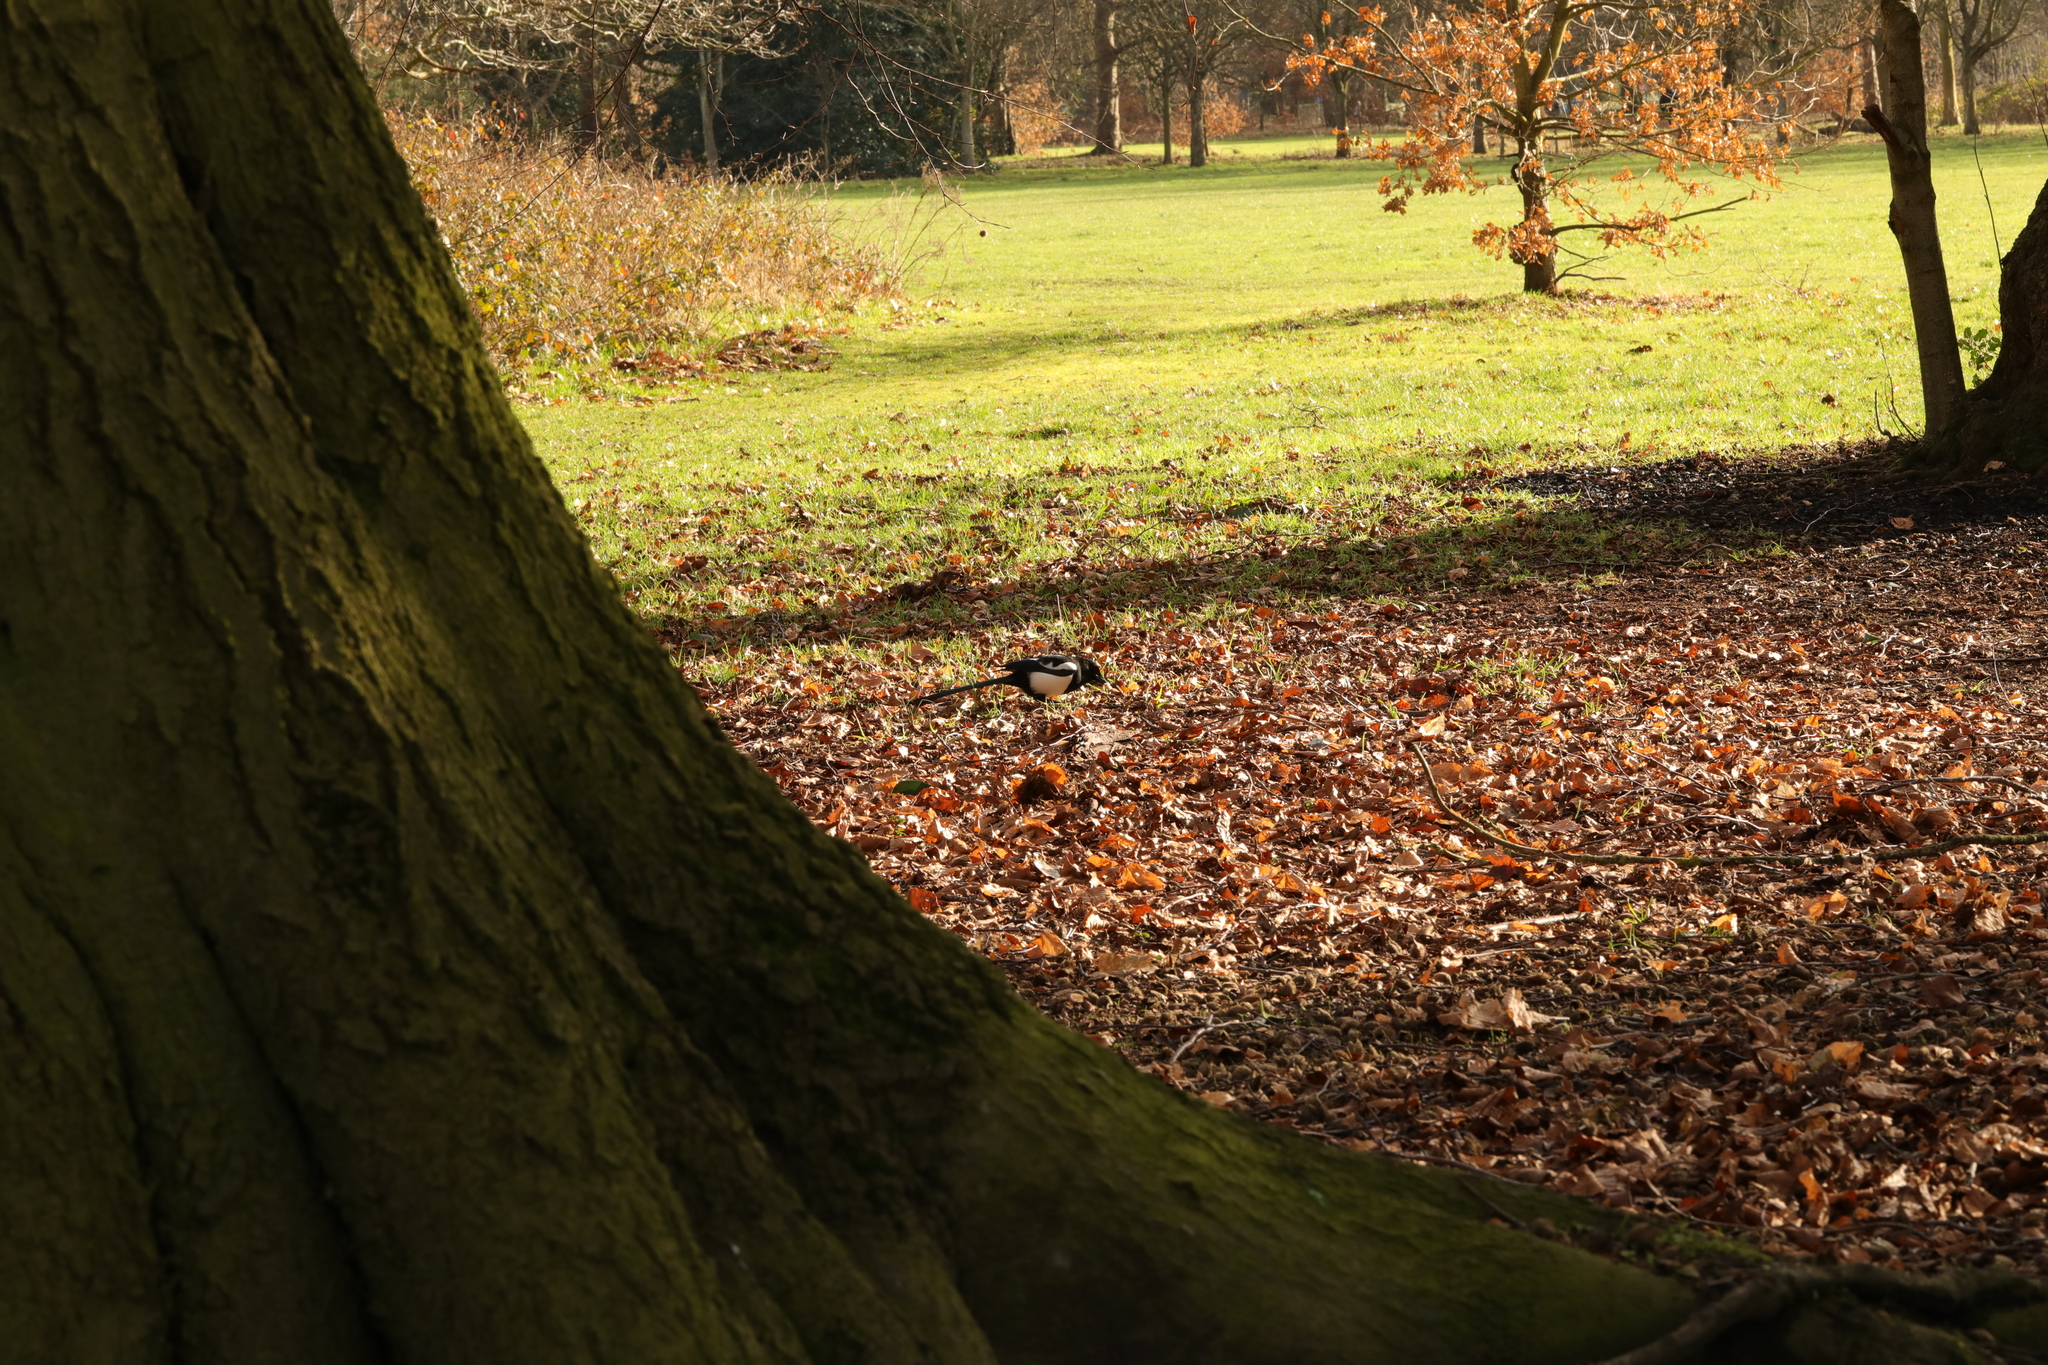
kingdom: Animalia
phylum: Chordata
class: Aves
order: Passeriformes
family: Corvidae
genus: Pica
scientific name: Pica pica
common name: Eurasian magpie
